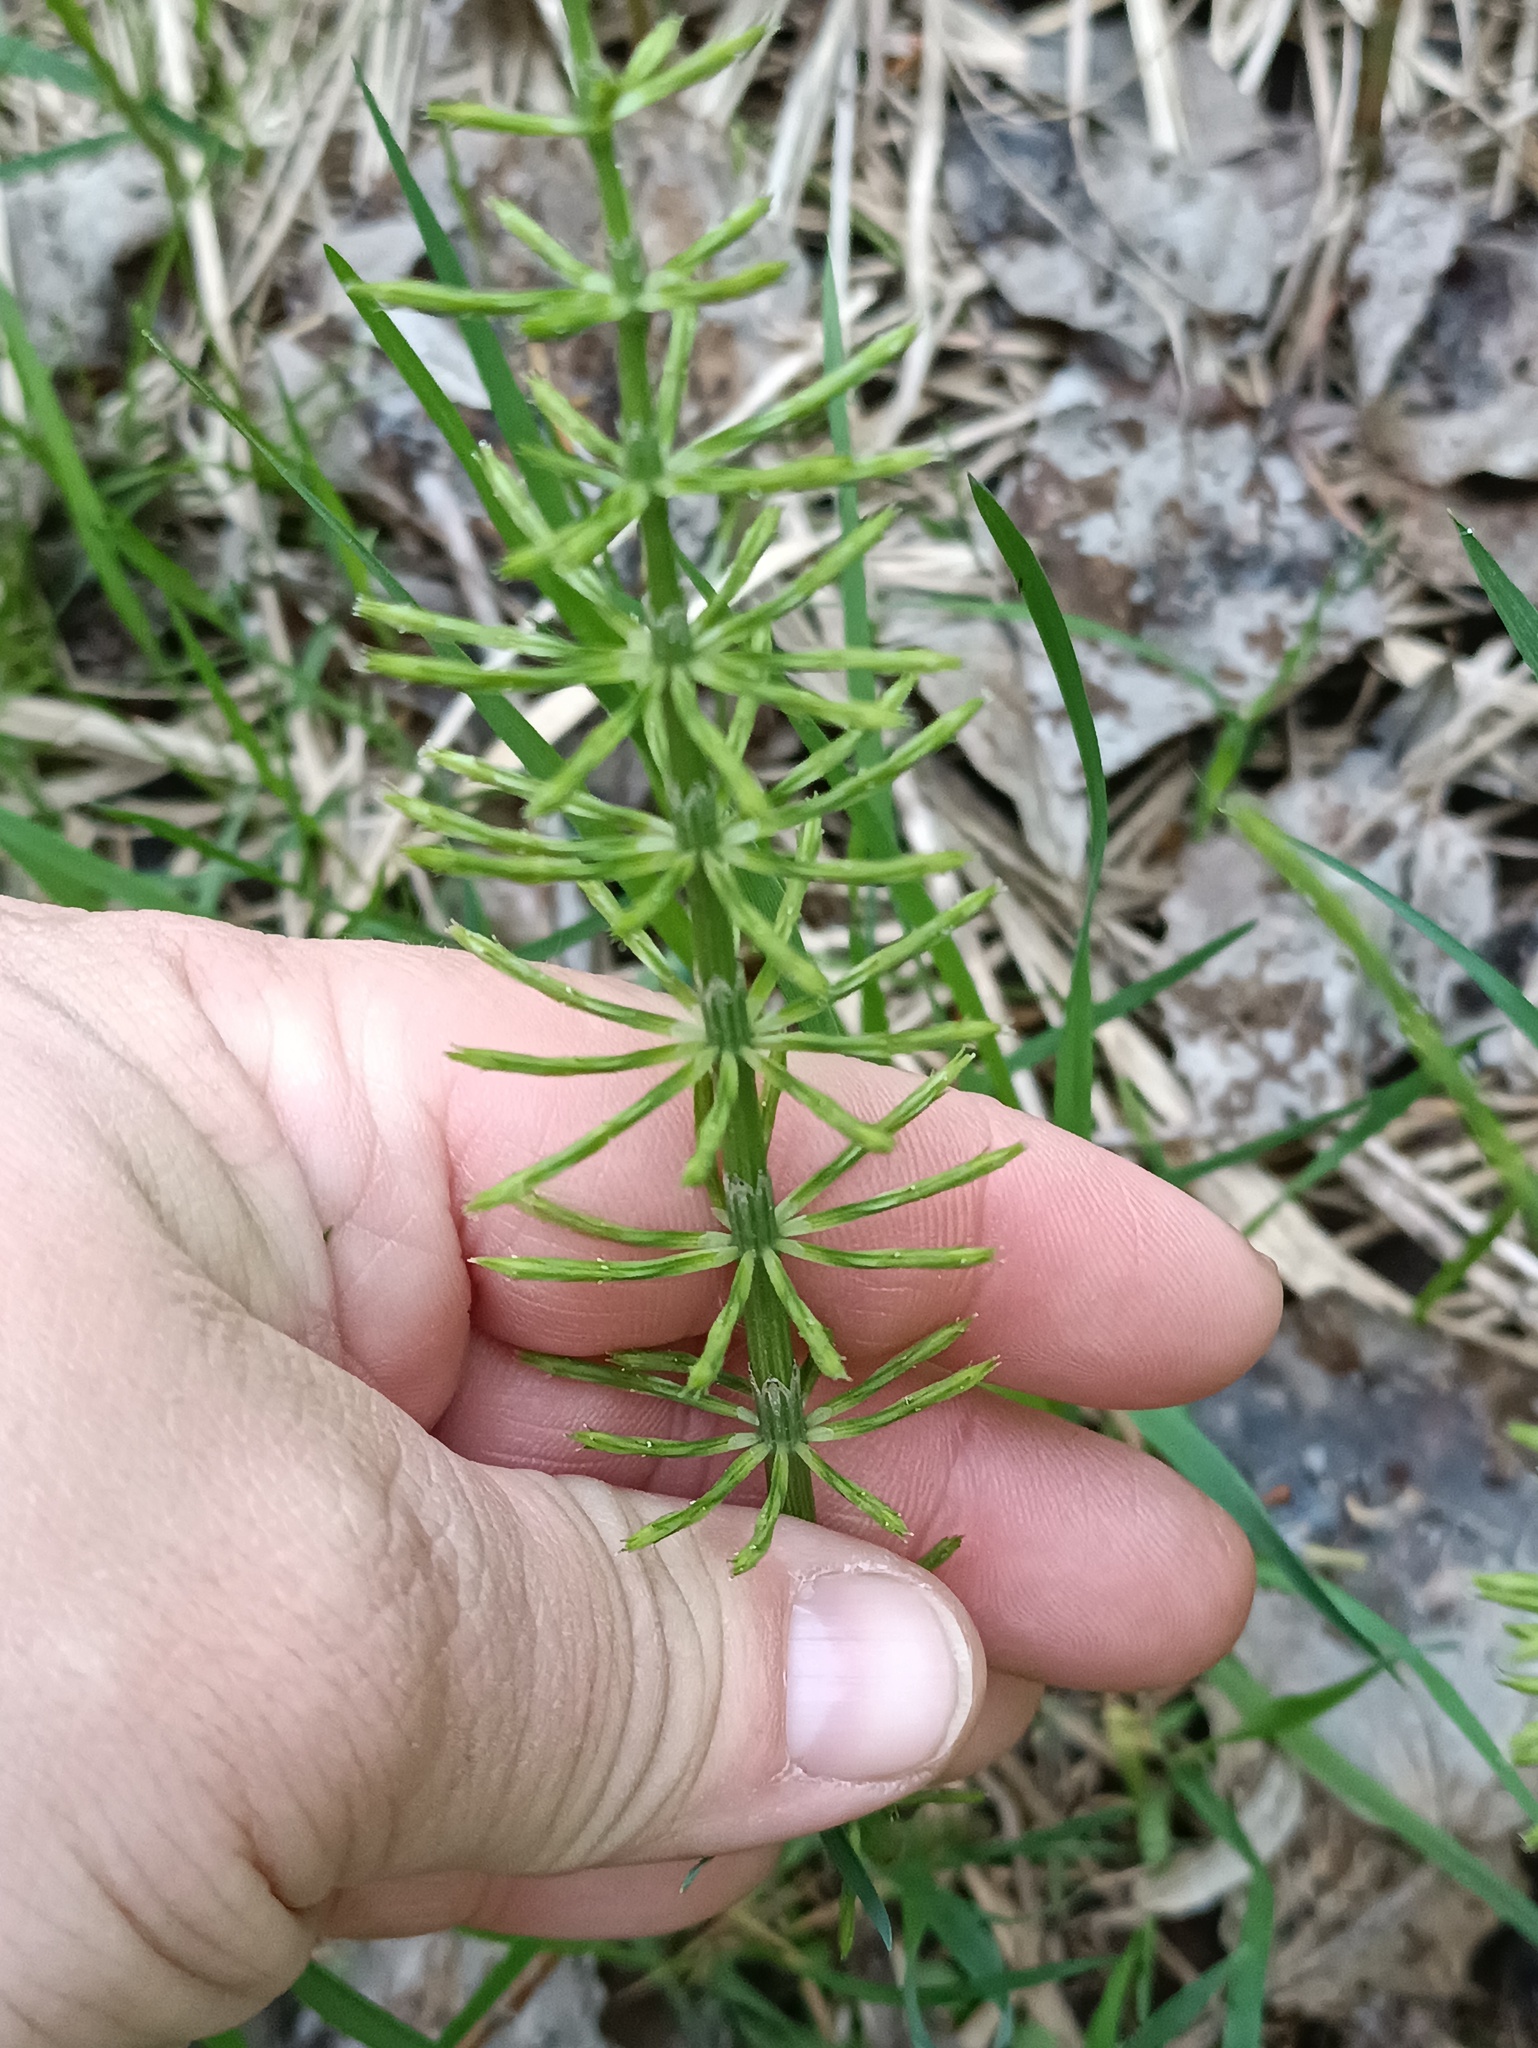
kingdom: Plantae
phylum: Tracheophyta
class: Polypodiopsida
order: Equisetales
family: Equisetaceae
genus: Equisetum
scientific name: Equisetum arvense
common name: Field horsetail
